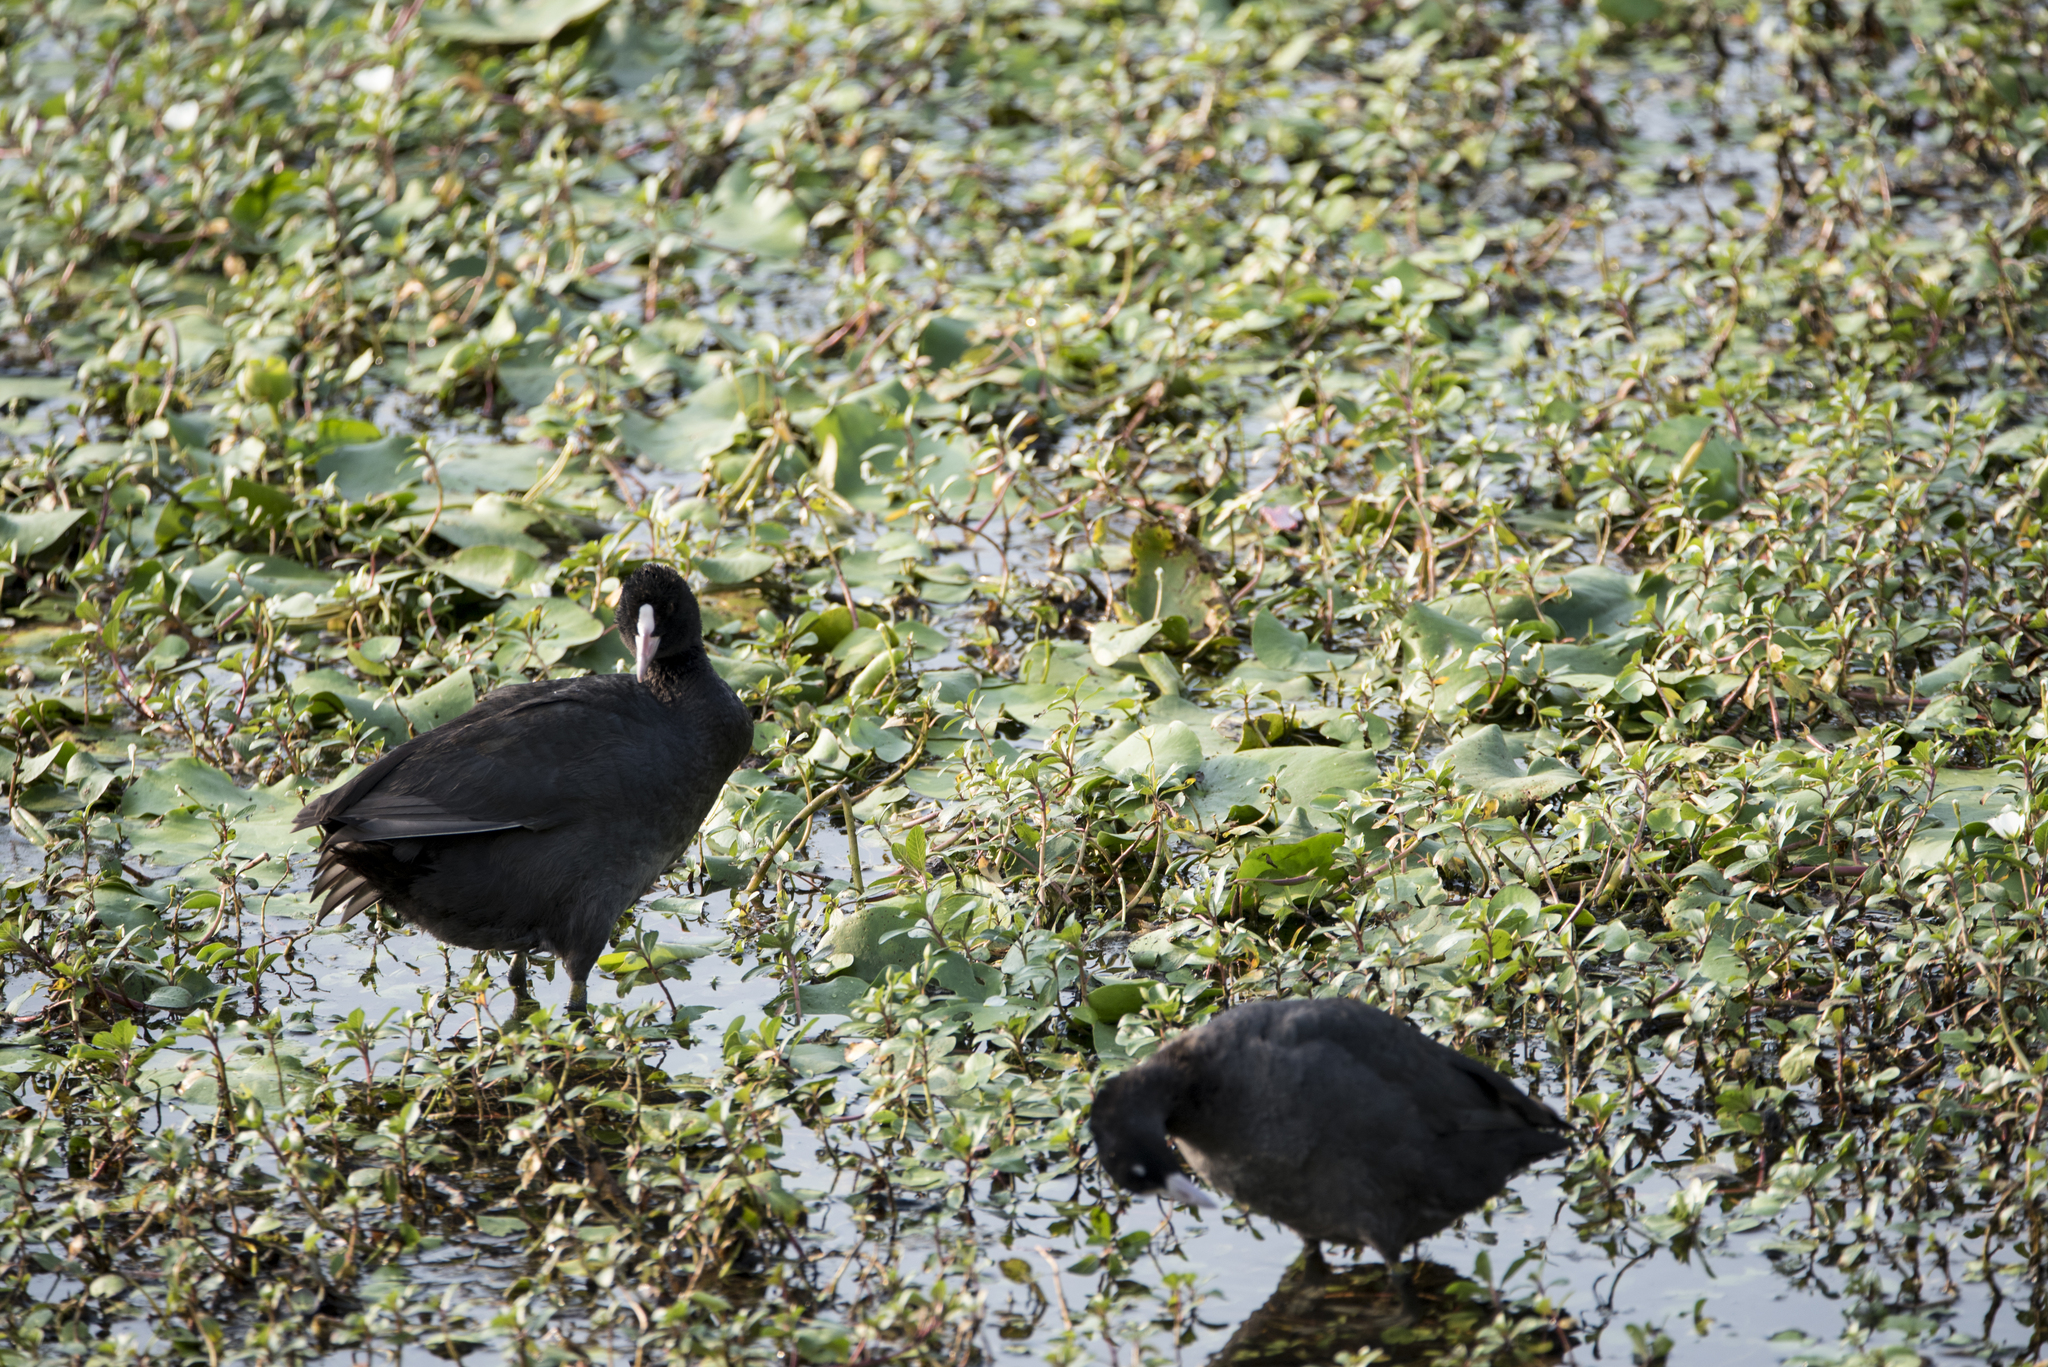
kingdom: Animalia
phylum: Chordata
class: Aves
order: Gruiformes
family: Rallidae
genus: Fulica
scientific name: Fulica atra
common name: Eurasian coot
